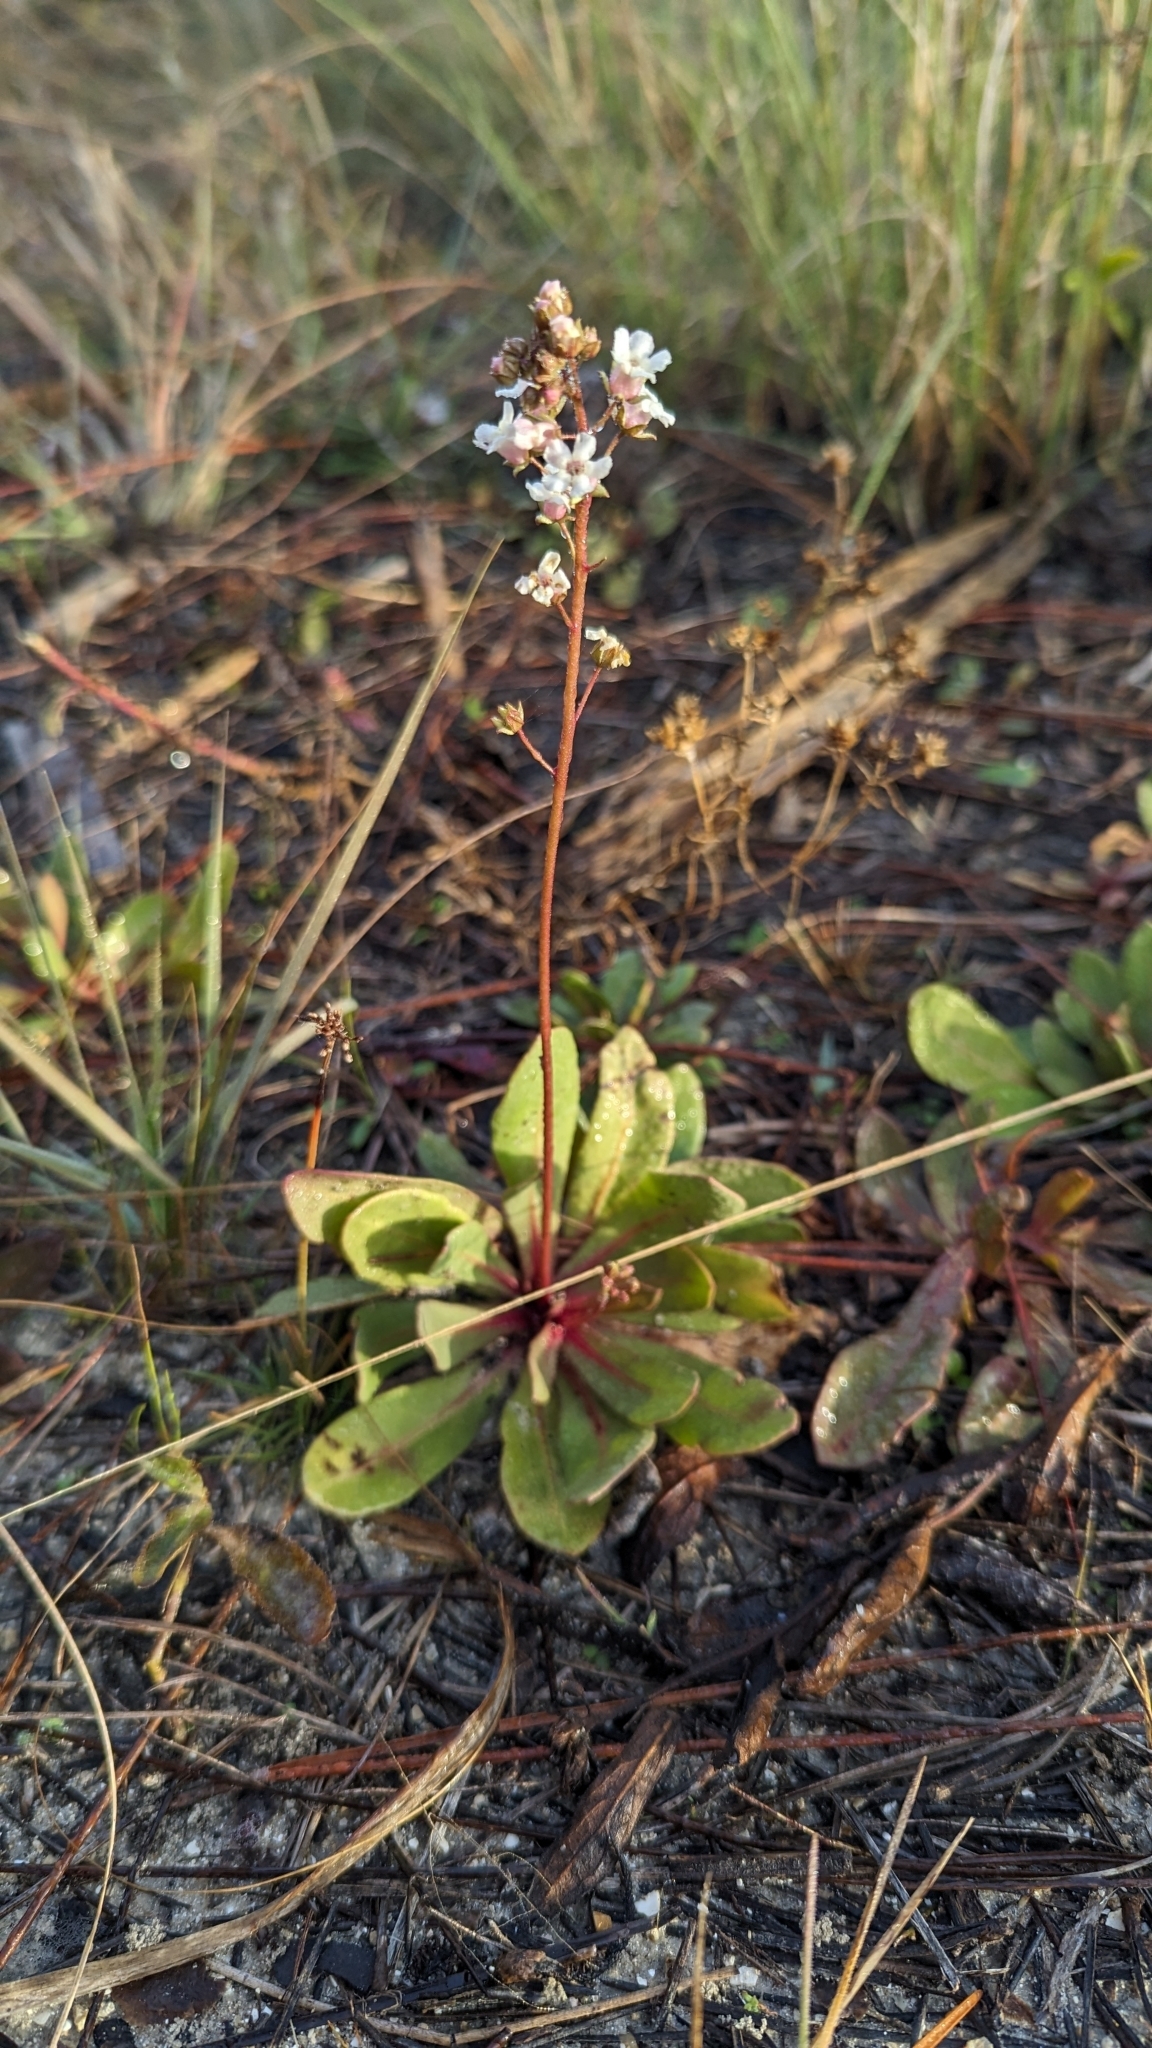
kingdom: Plantae
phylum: Tracheophyta
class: Magnoliopsida
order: Fabales
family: Polygalaceae
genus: Asemeia
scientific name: Asemeia grandiflora
